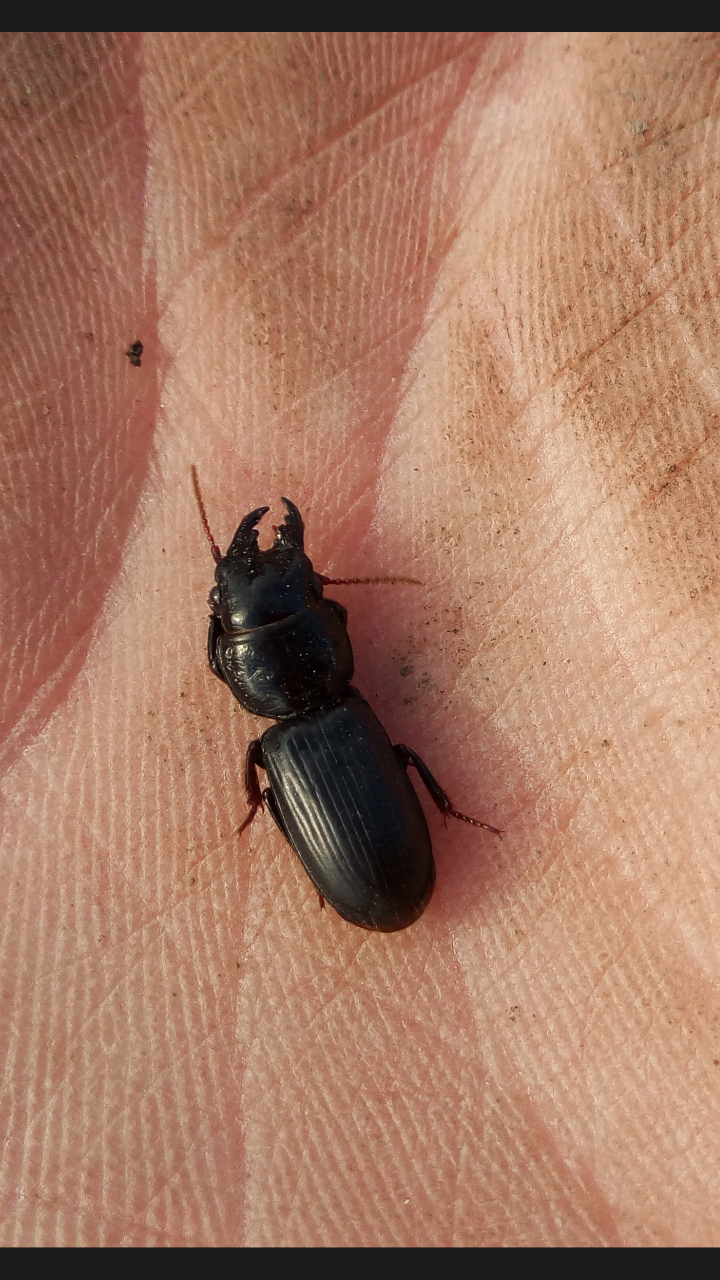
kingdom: Animalia
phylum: Arthropoda
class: Insecta
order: Coleoptera
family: Carabidae
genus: Scarites
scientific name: Scarites subterraneus
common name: Big-headed ground beetle
